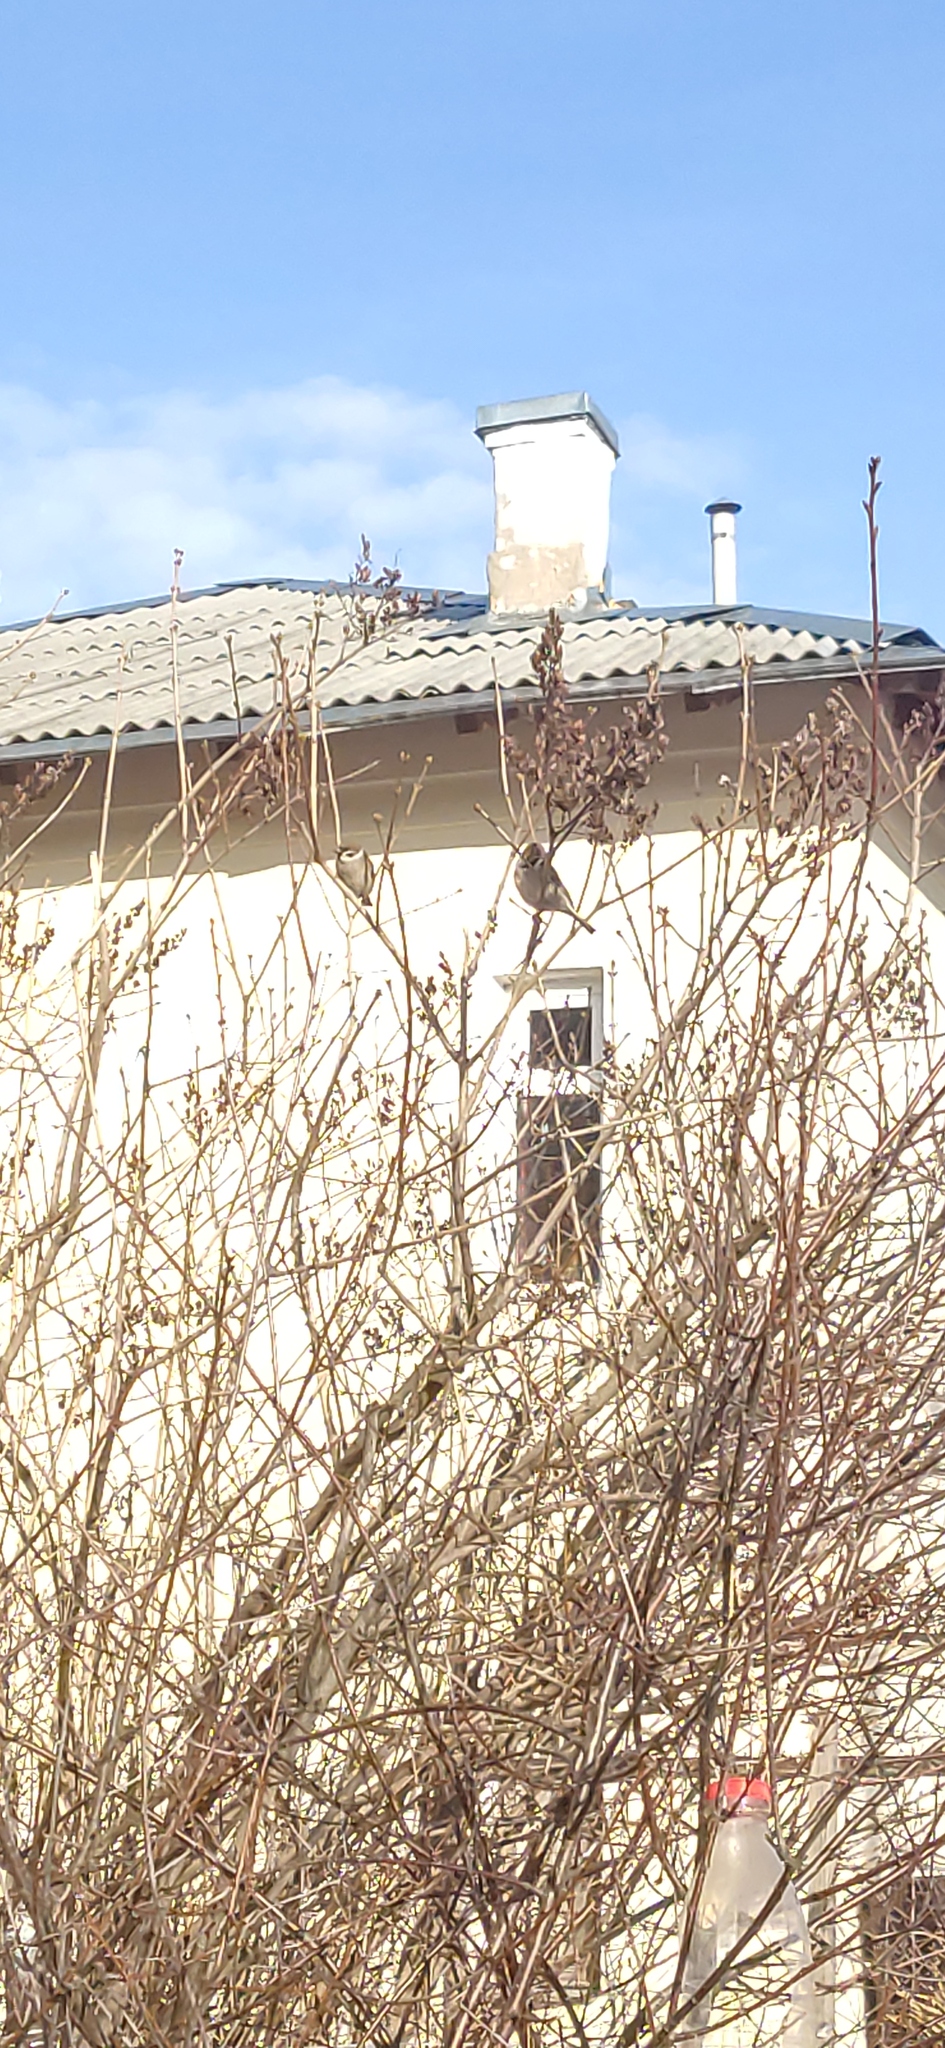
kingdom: Animalia
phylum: Chordata
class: Aves
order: Passeriformes
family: Passeridae
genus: Passer
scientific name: Passer montanus
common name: Eurasian tree sparrow
